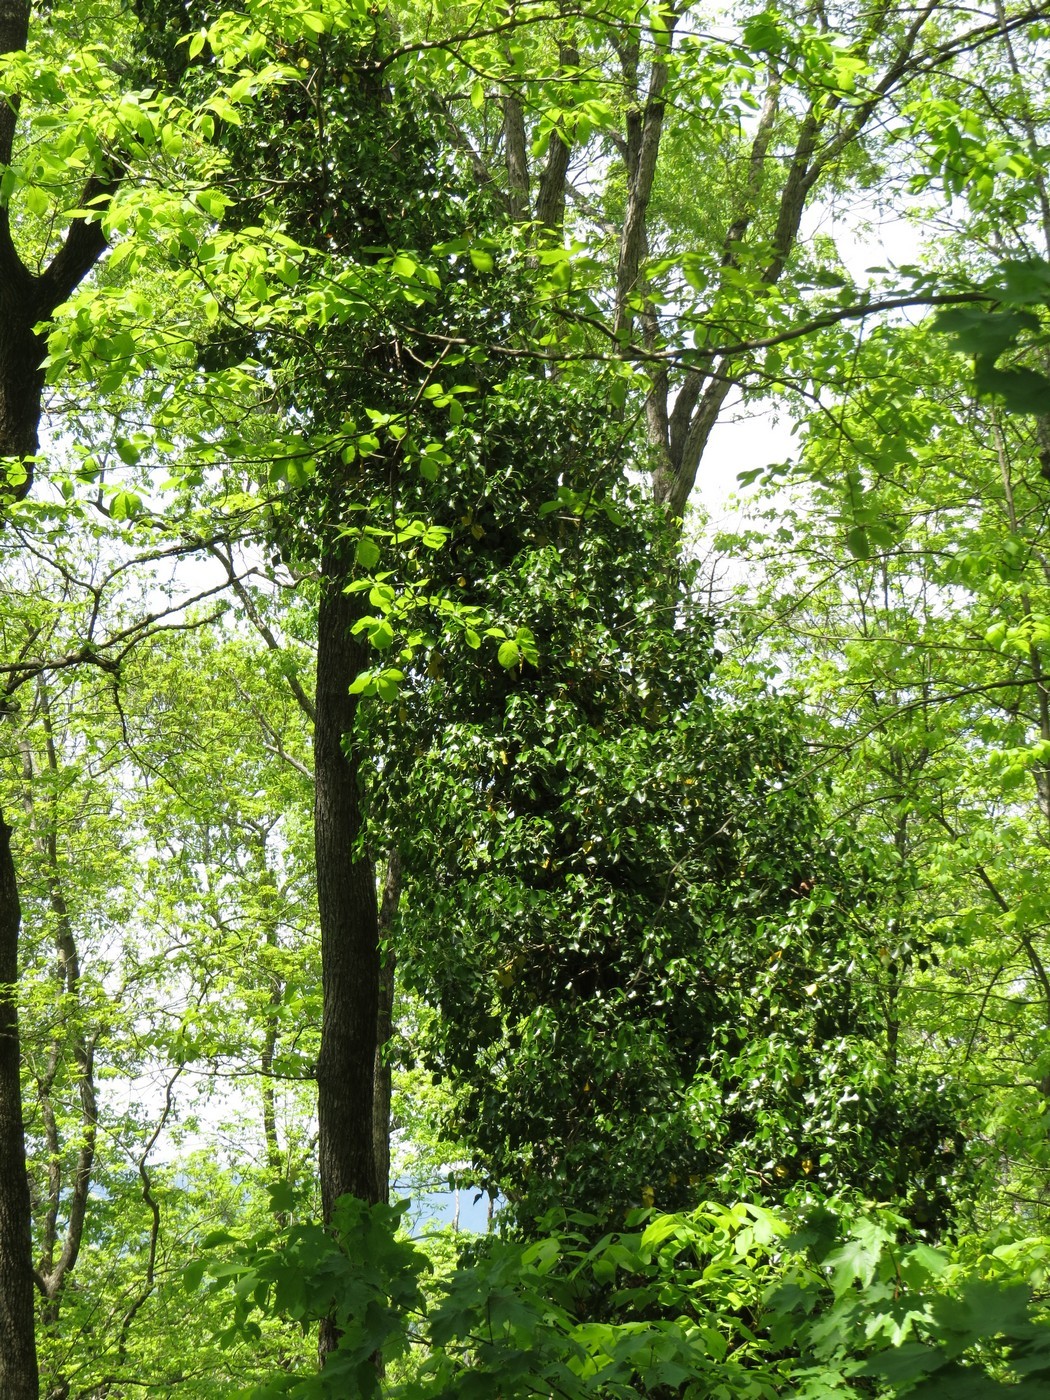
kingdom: Plantae
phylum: Tracheophyta
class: Magnoliopsida
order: Apiales
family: Araliaceae
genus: Hedera
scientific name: Hedera helix
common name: Ivy
